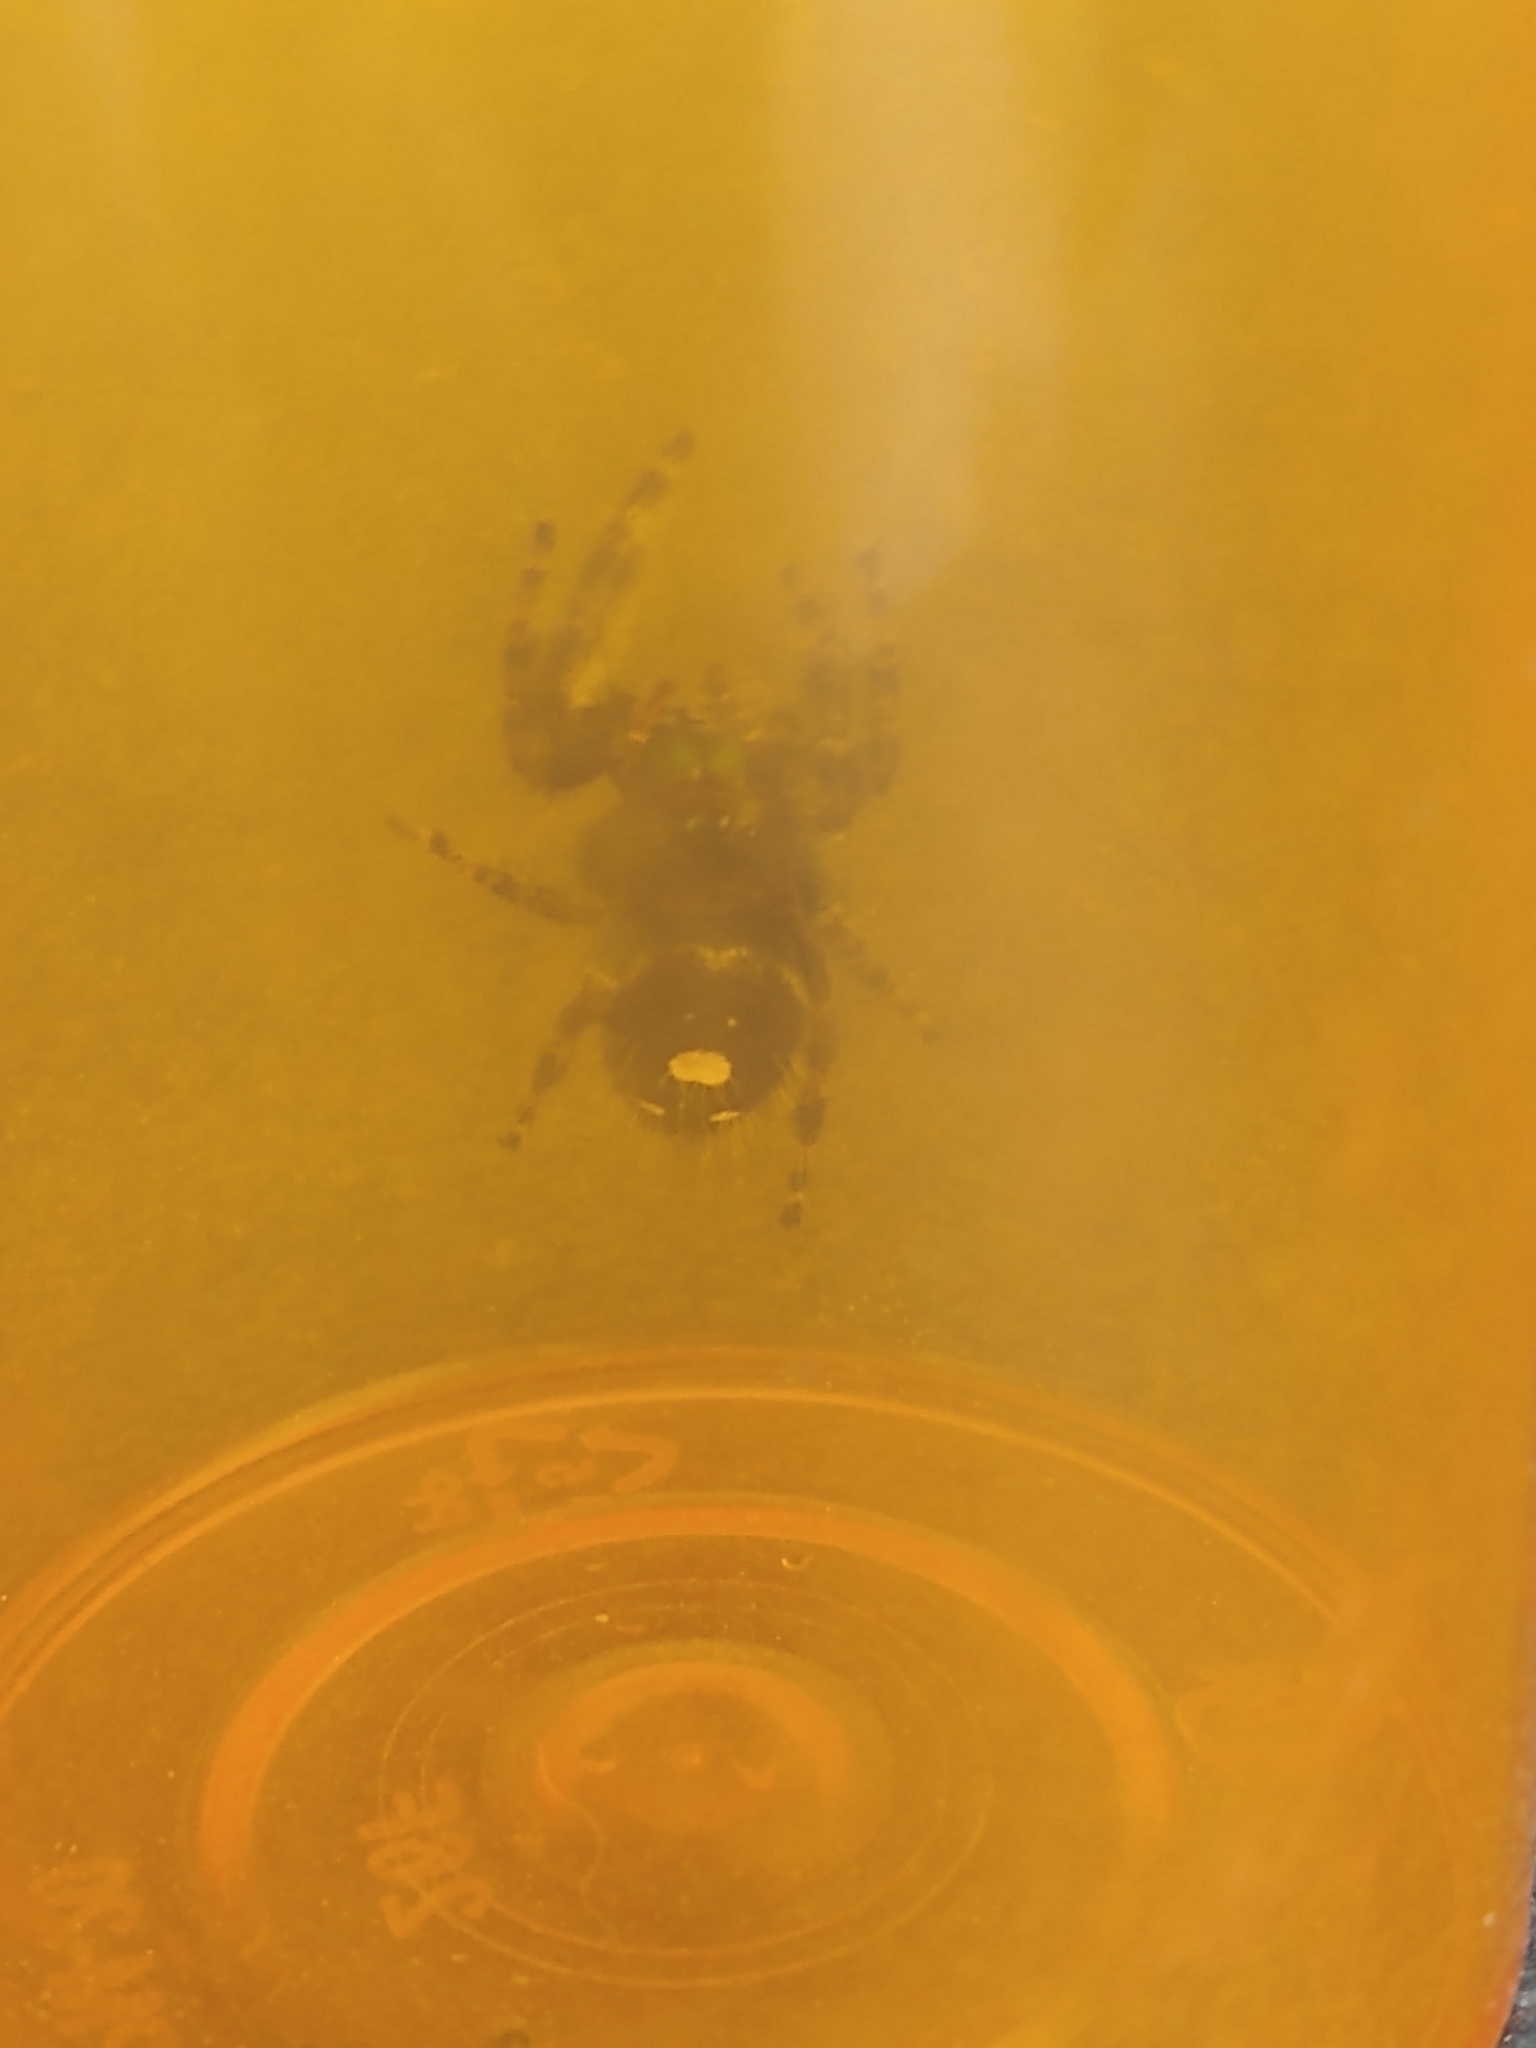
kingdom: Animalia
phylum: Arthropoda
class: Arachnida
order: Araneae
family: Salticidae
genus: Phidippus
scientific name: Phidippus audax
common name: Bold jumper
